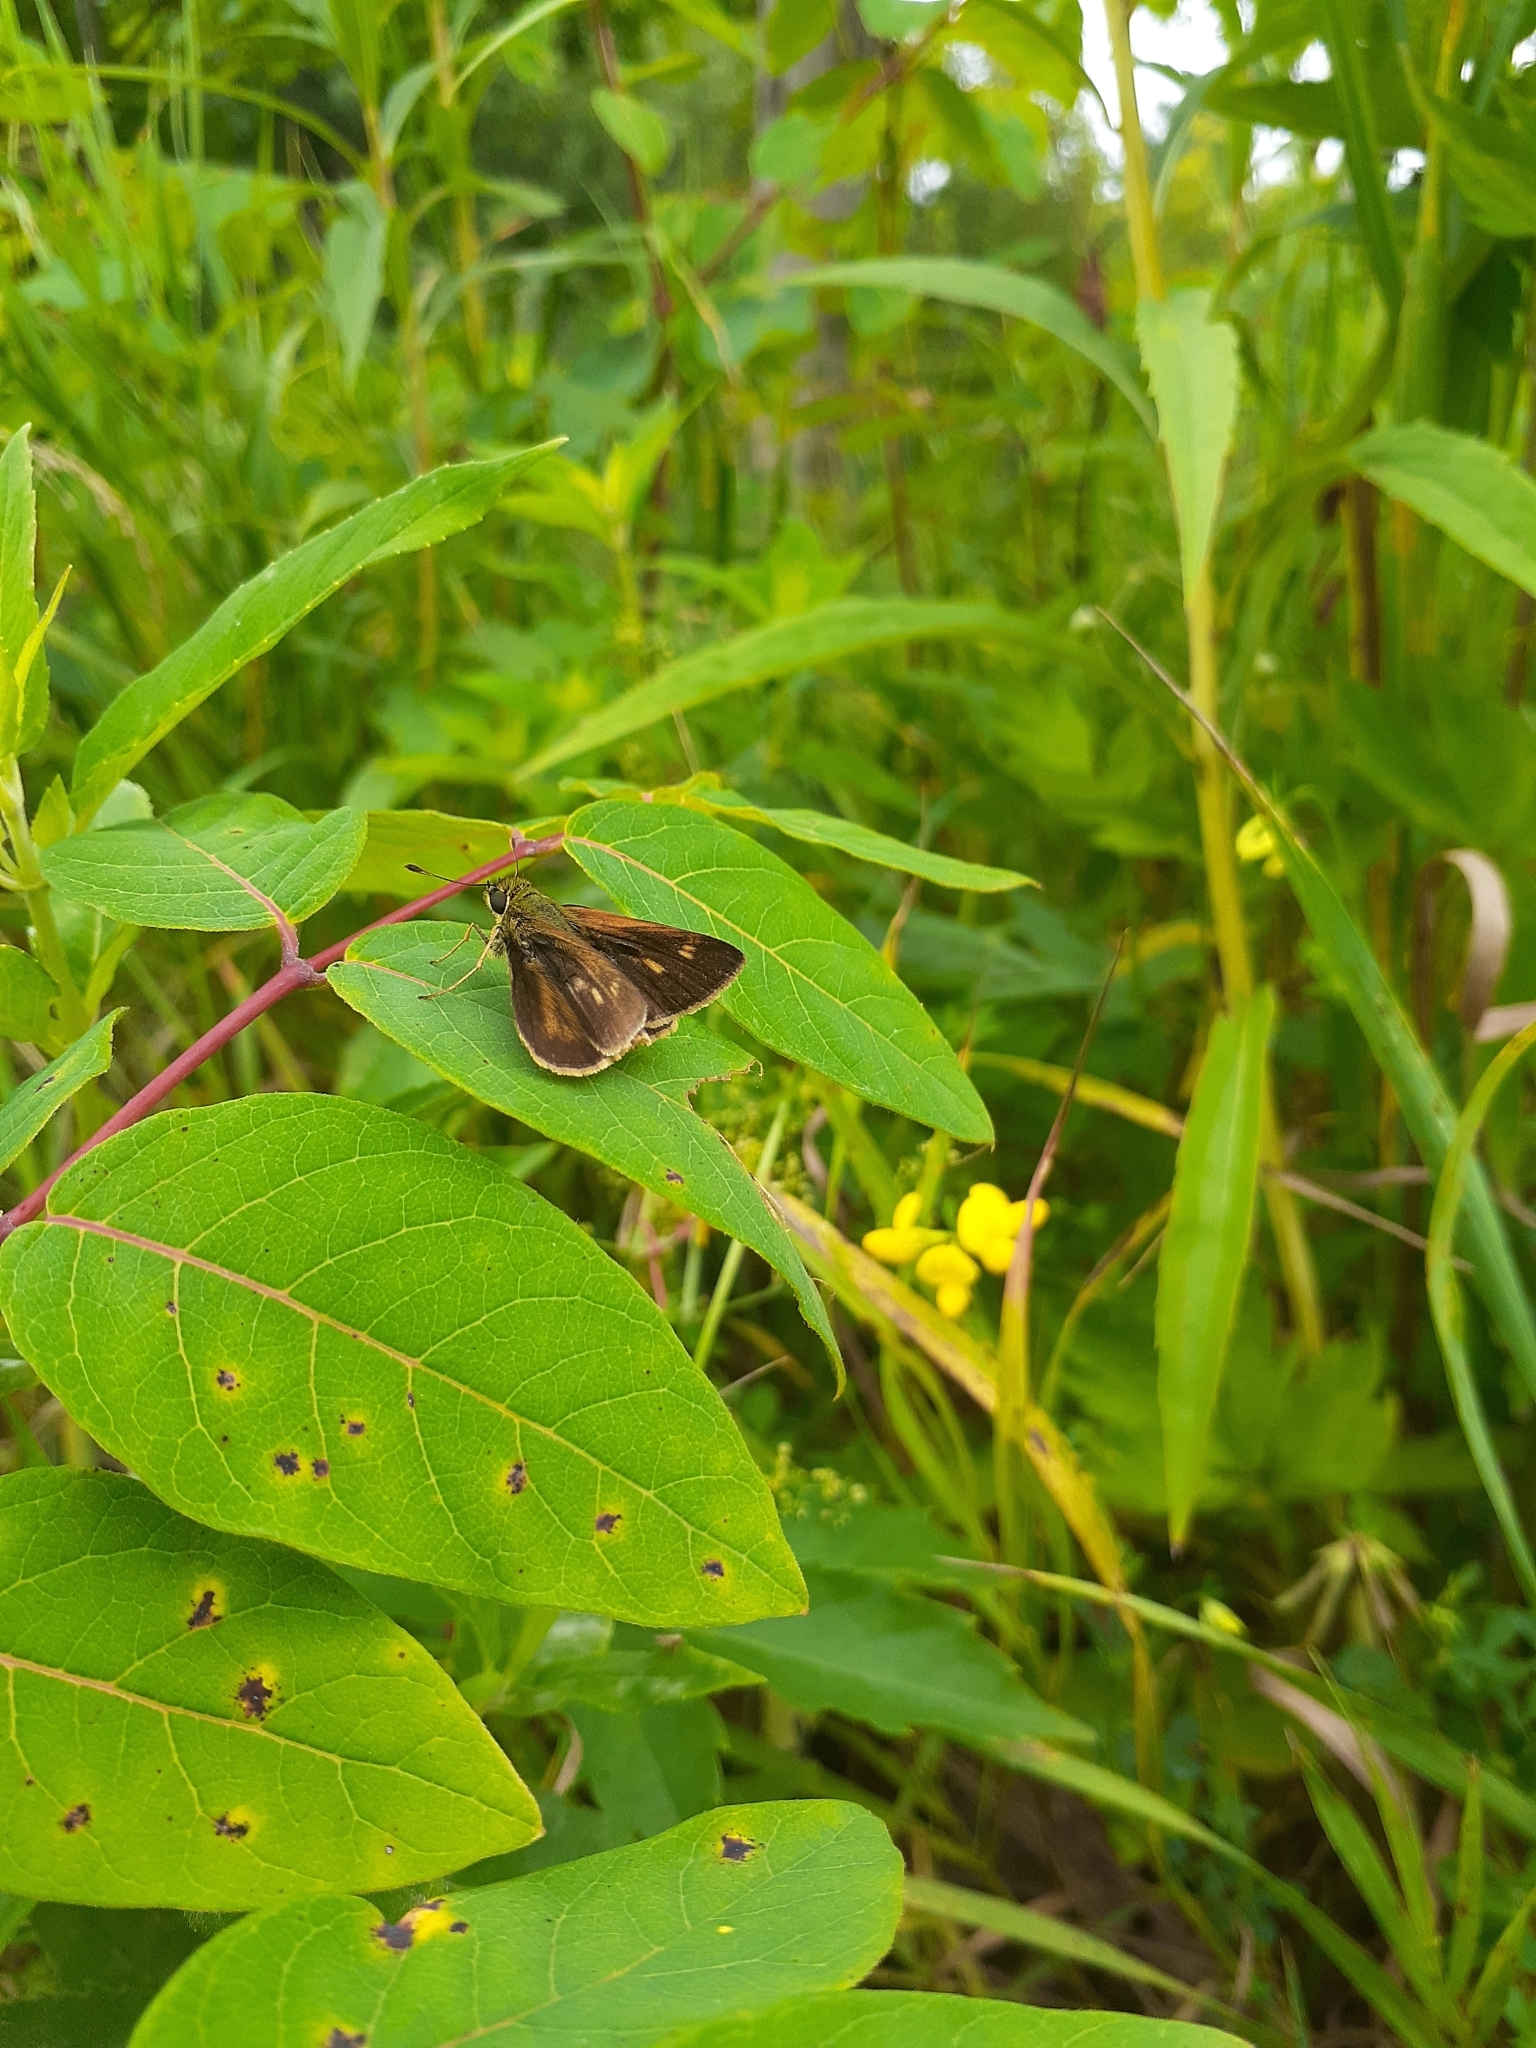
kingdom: Animalia
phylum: Arthropoda
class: Insecta
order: Lepidoptera
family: Hesperiidae
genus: Polites
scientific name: Polites egeremet
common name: Northern broken-dash
